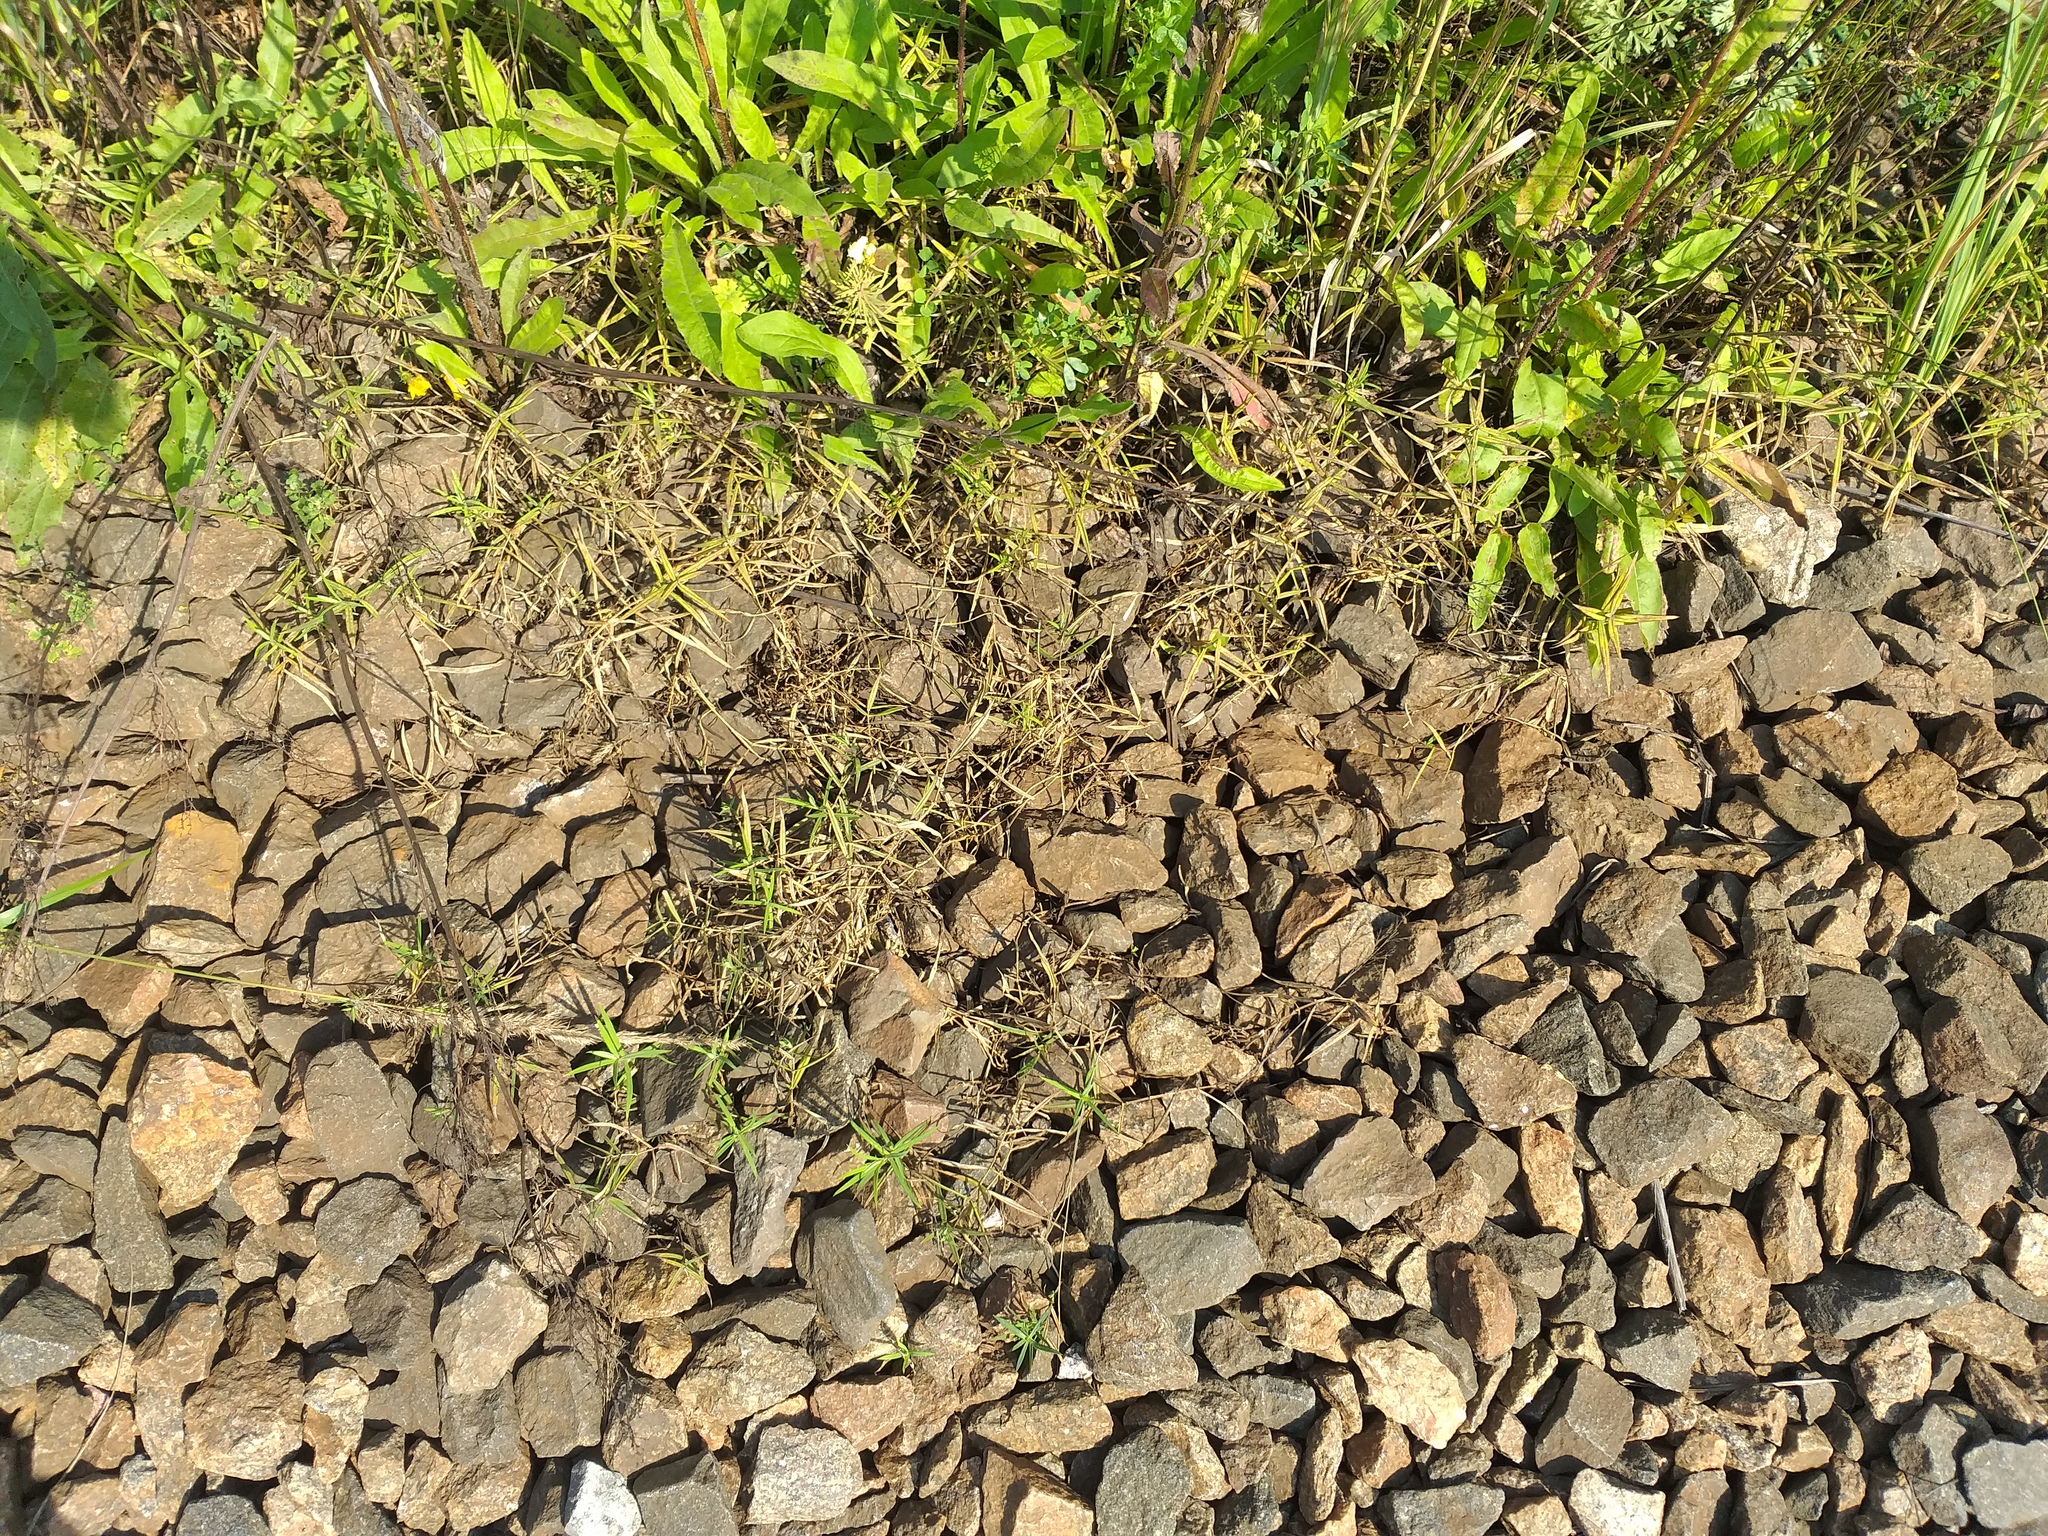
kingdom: Plantae
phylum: Tracheophyta
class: Magnoliopsida
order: Caryophyllales
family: Caryophyllaceae
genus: Rabelera
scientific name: Rabelera holostea
